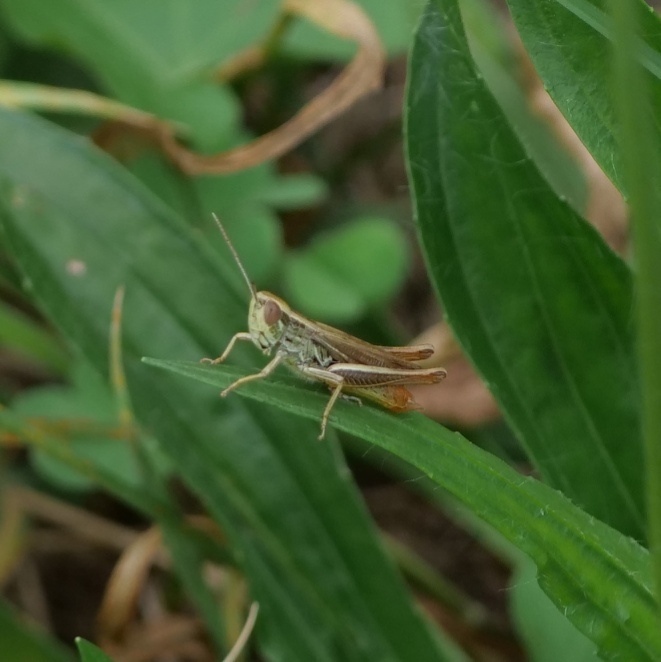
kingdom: Animalia
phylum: Arthropoda
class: Insecta
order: Orthoptera
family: Acrididae
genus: Euchorthippus
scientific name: Euchorthippus declivus
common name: Common straw grasshopper
